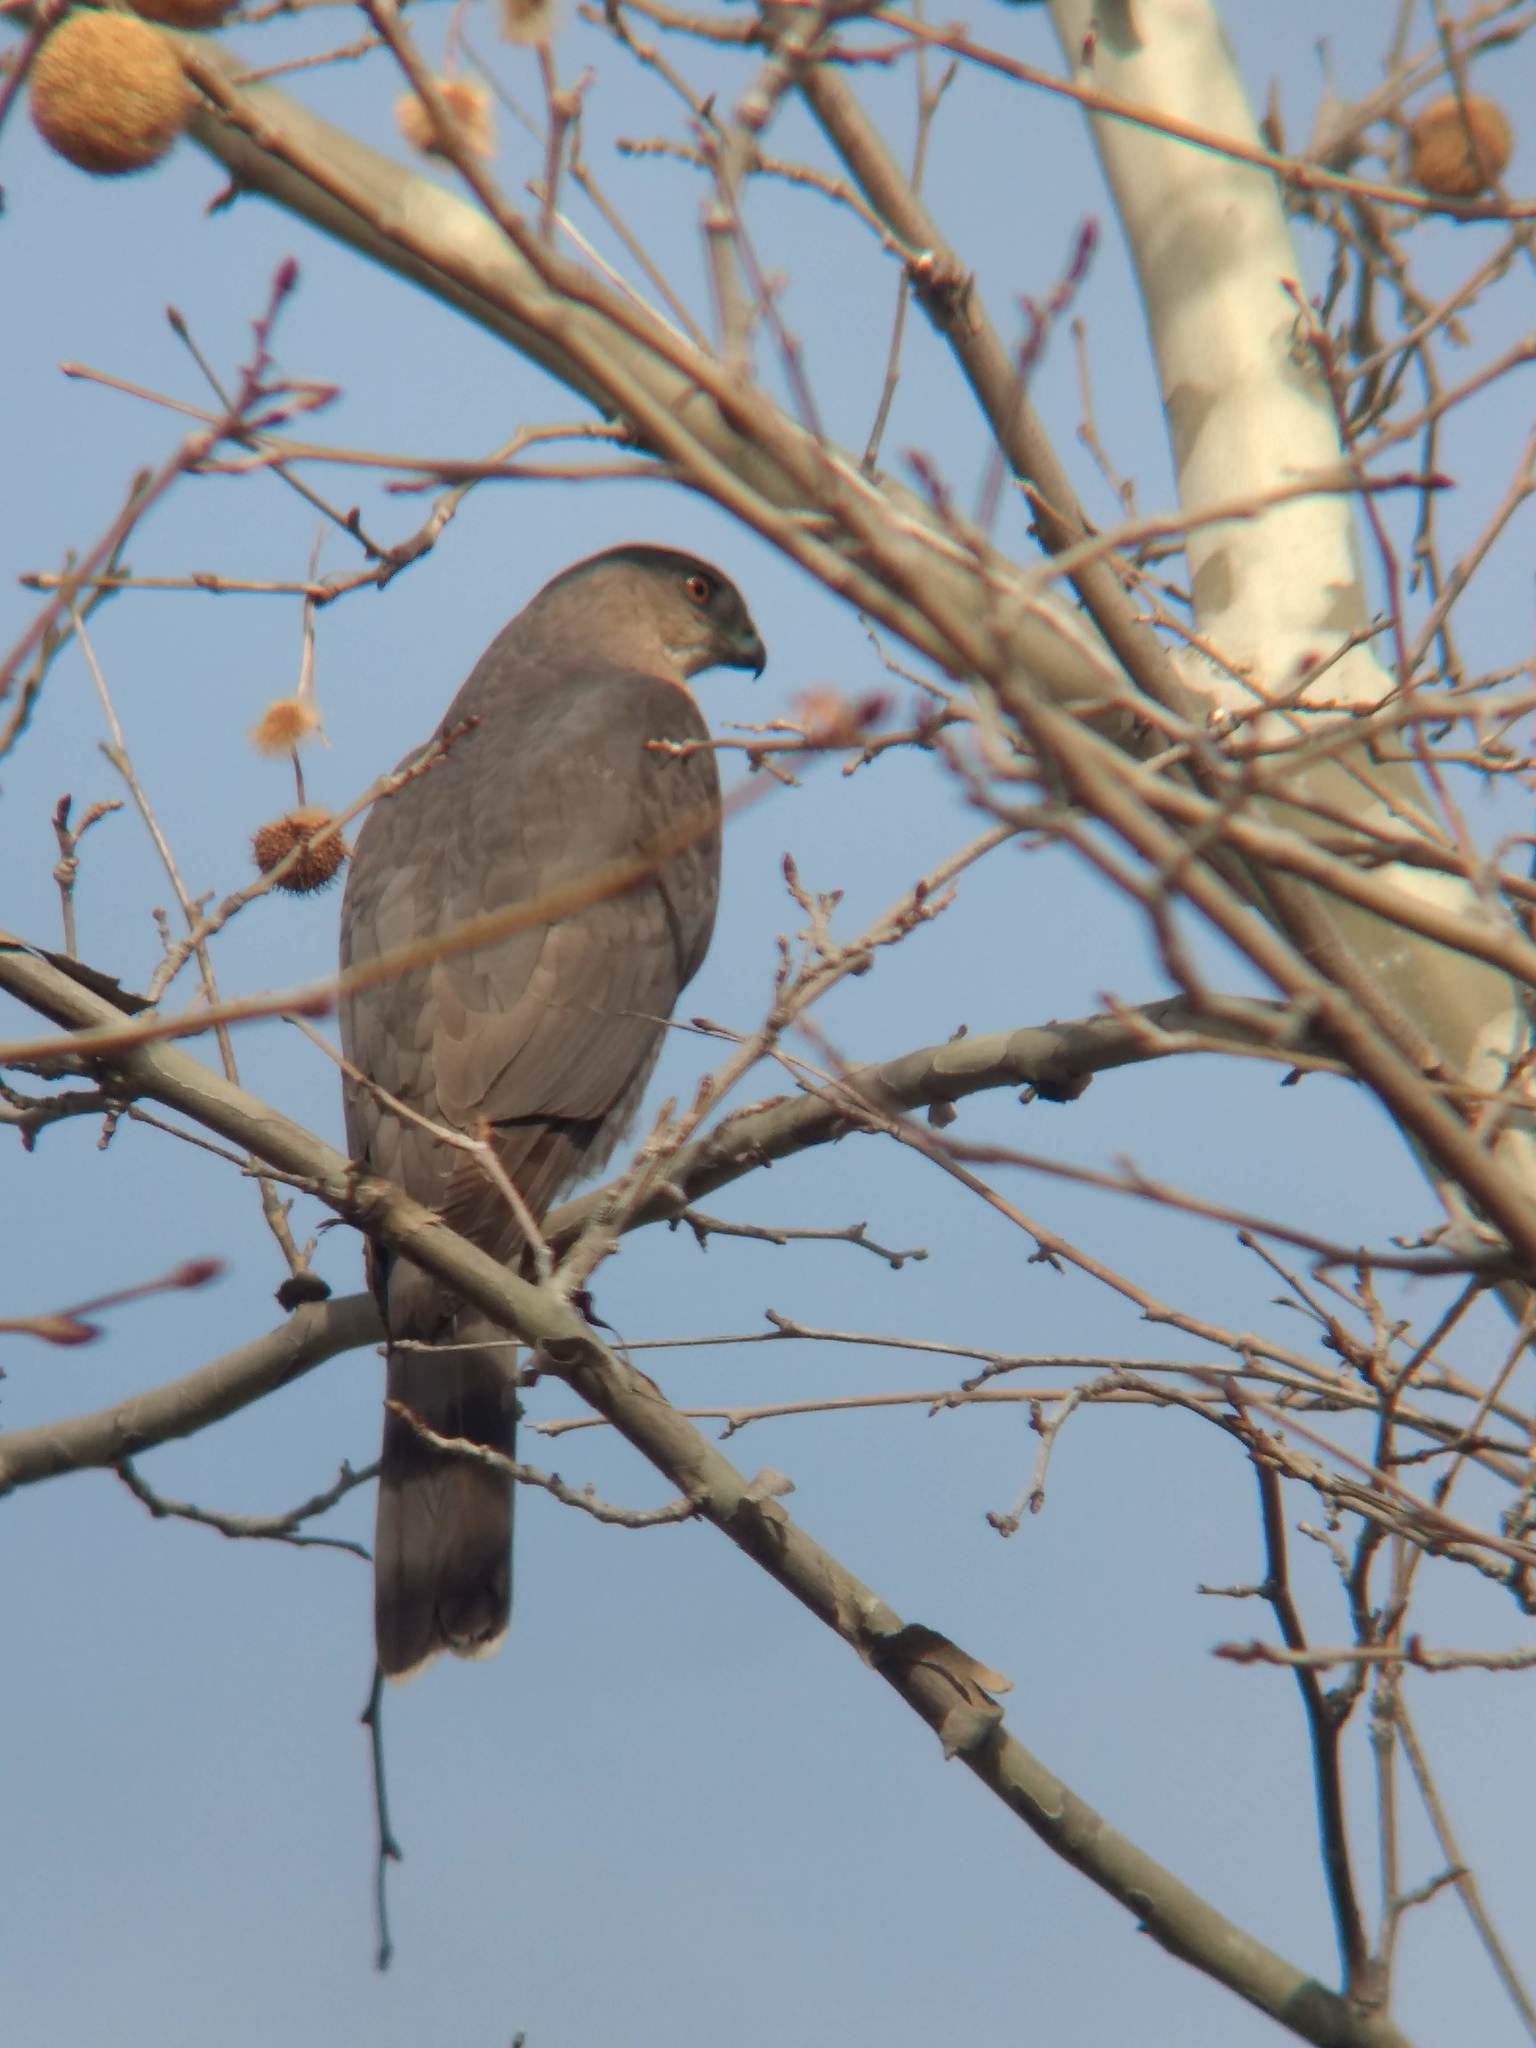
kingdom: Animalia
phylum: Chordata
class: Aves
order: Accipitriformes
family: Accipitridae
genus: Accipiter
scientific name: Accipiter cooperii
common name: Cooper's hawk
